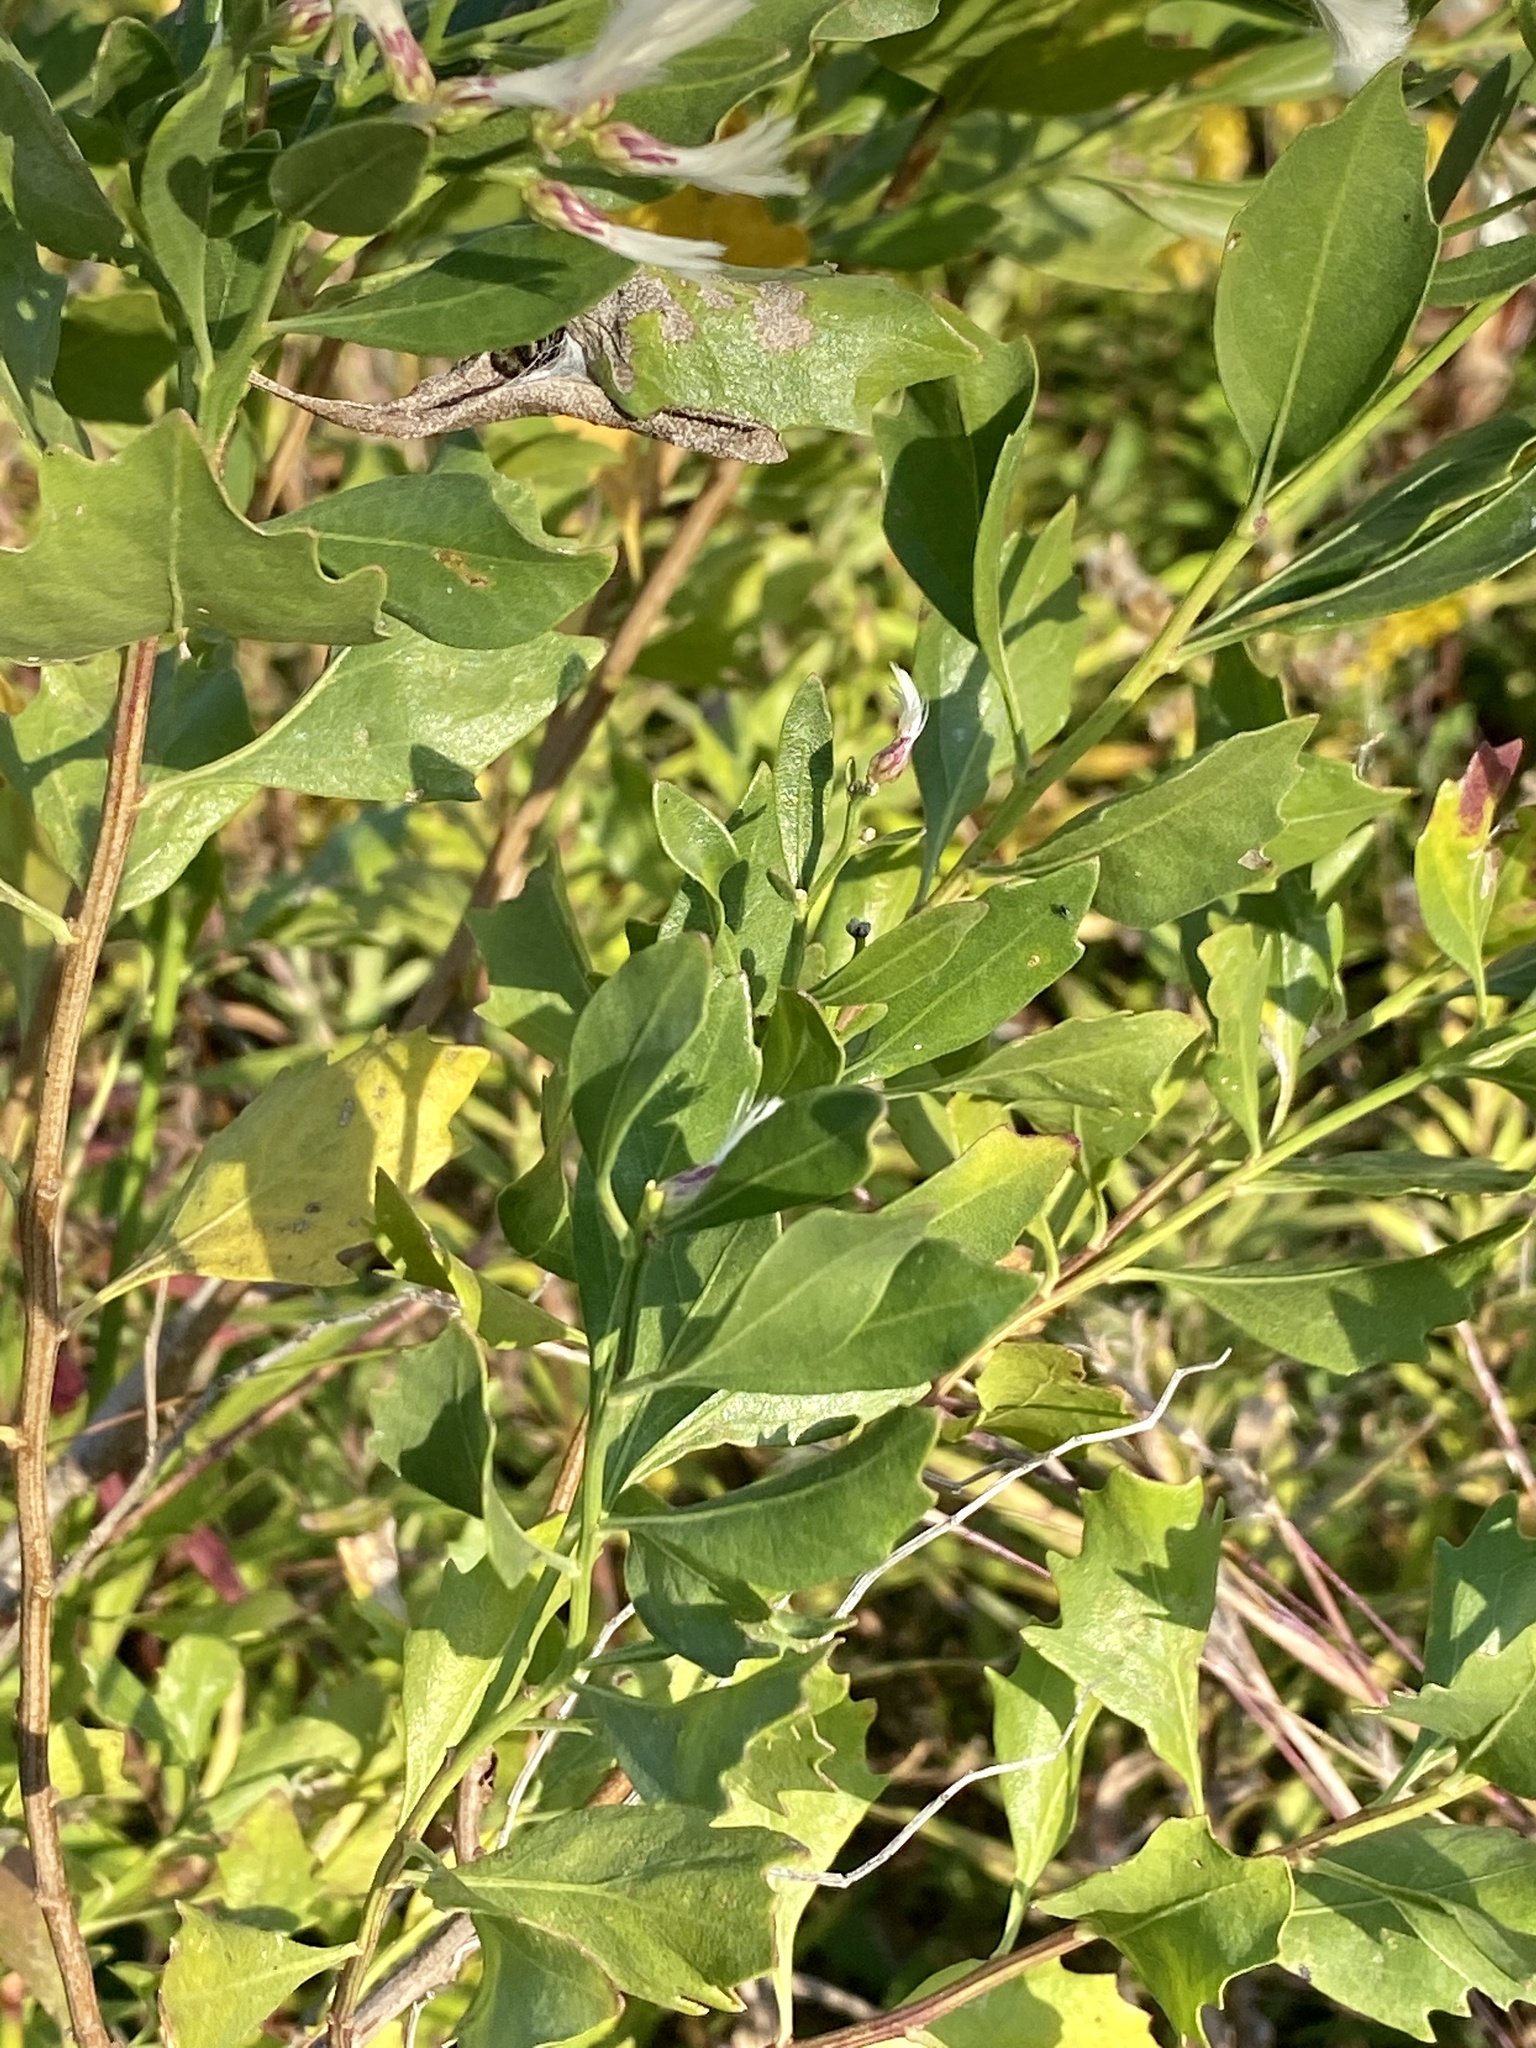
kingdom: Plantae
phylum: Tracheophyta
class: Magnoliopsida
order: Asterales
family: Asteraceae
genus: Baccharis
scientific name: Baccharis halimifolia
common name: Eastern baccharis
